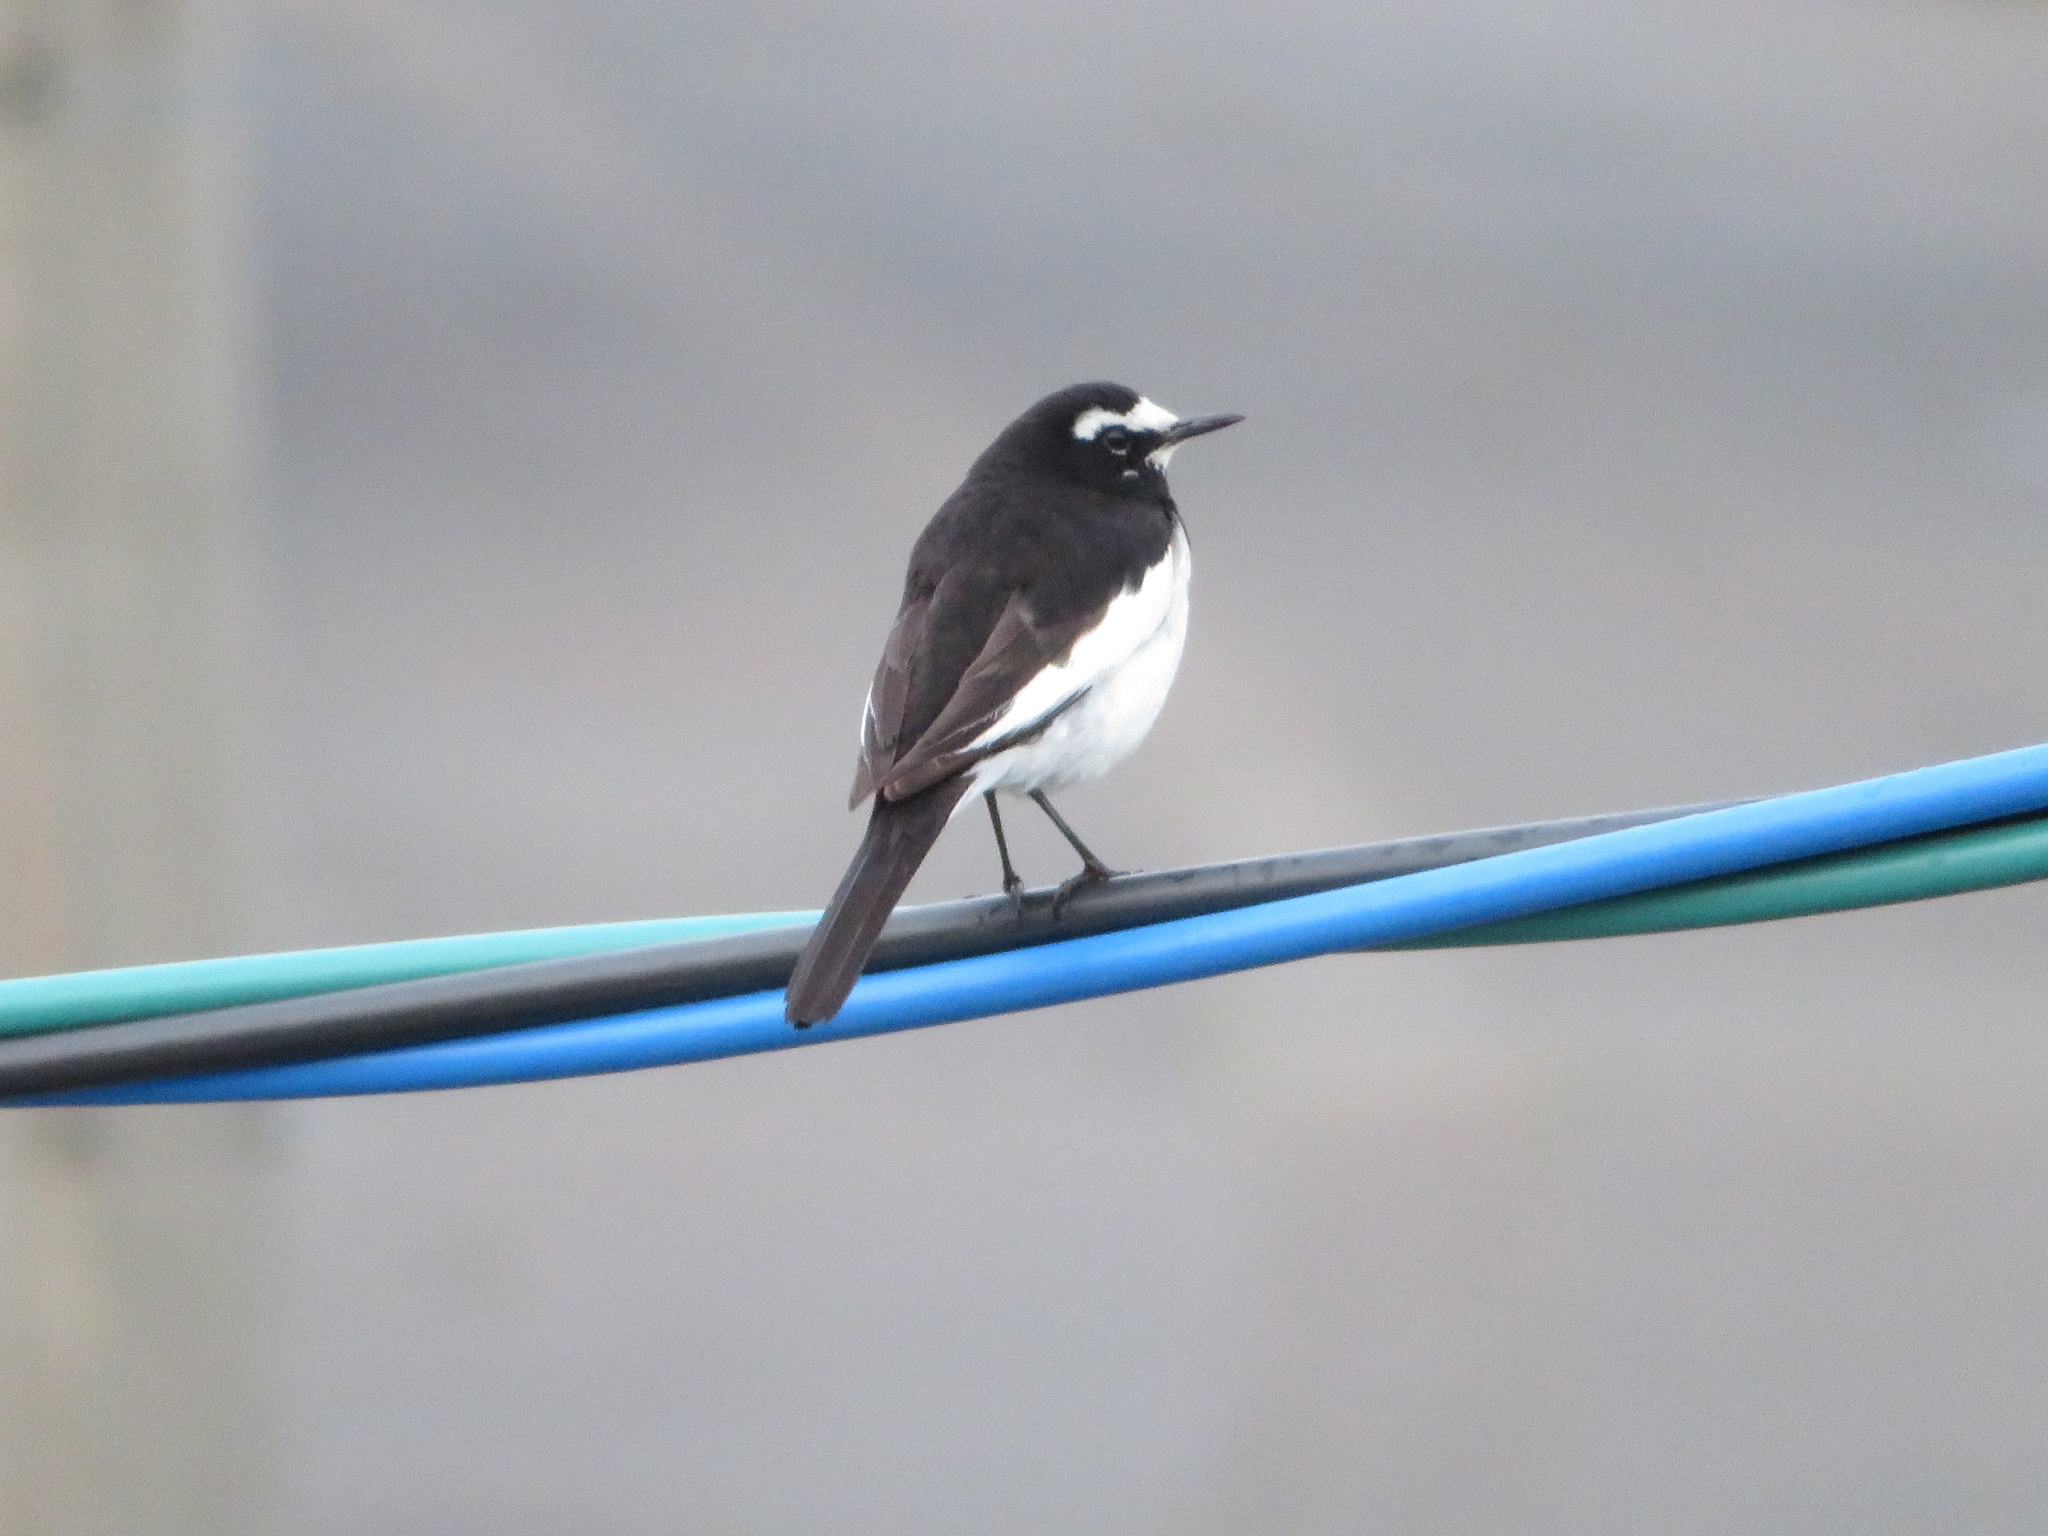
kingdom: Animalia
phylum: Chordata
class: Aves
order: Passeriformes
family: Motacillidae
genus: Motacilla
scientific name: Motacilla grandis
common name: Japanese wagtail
